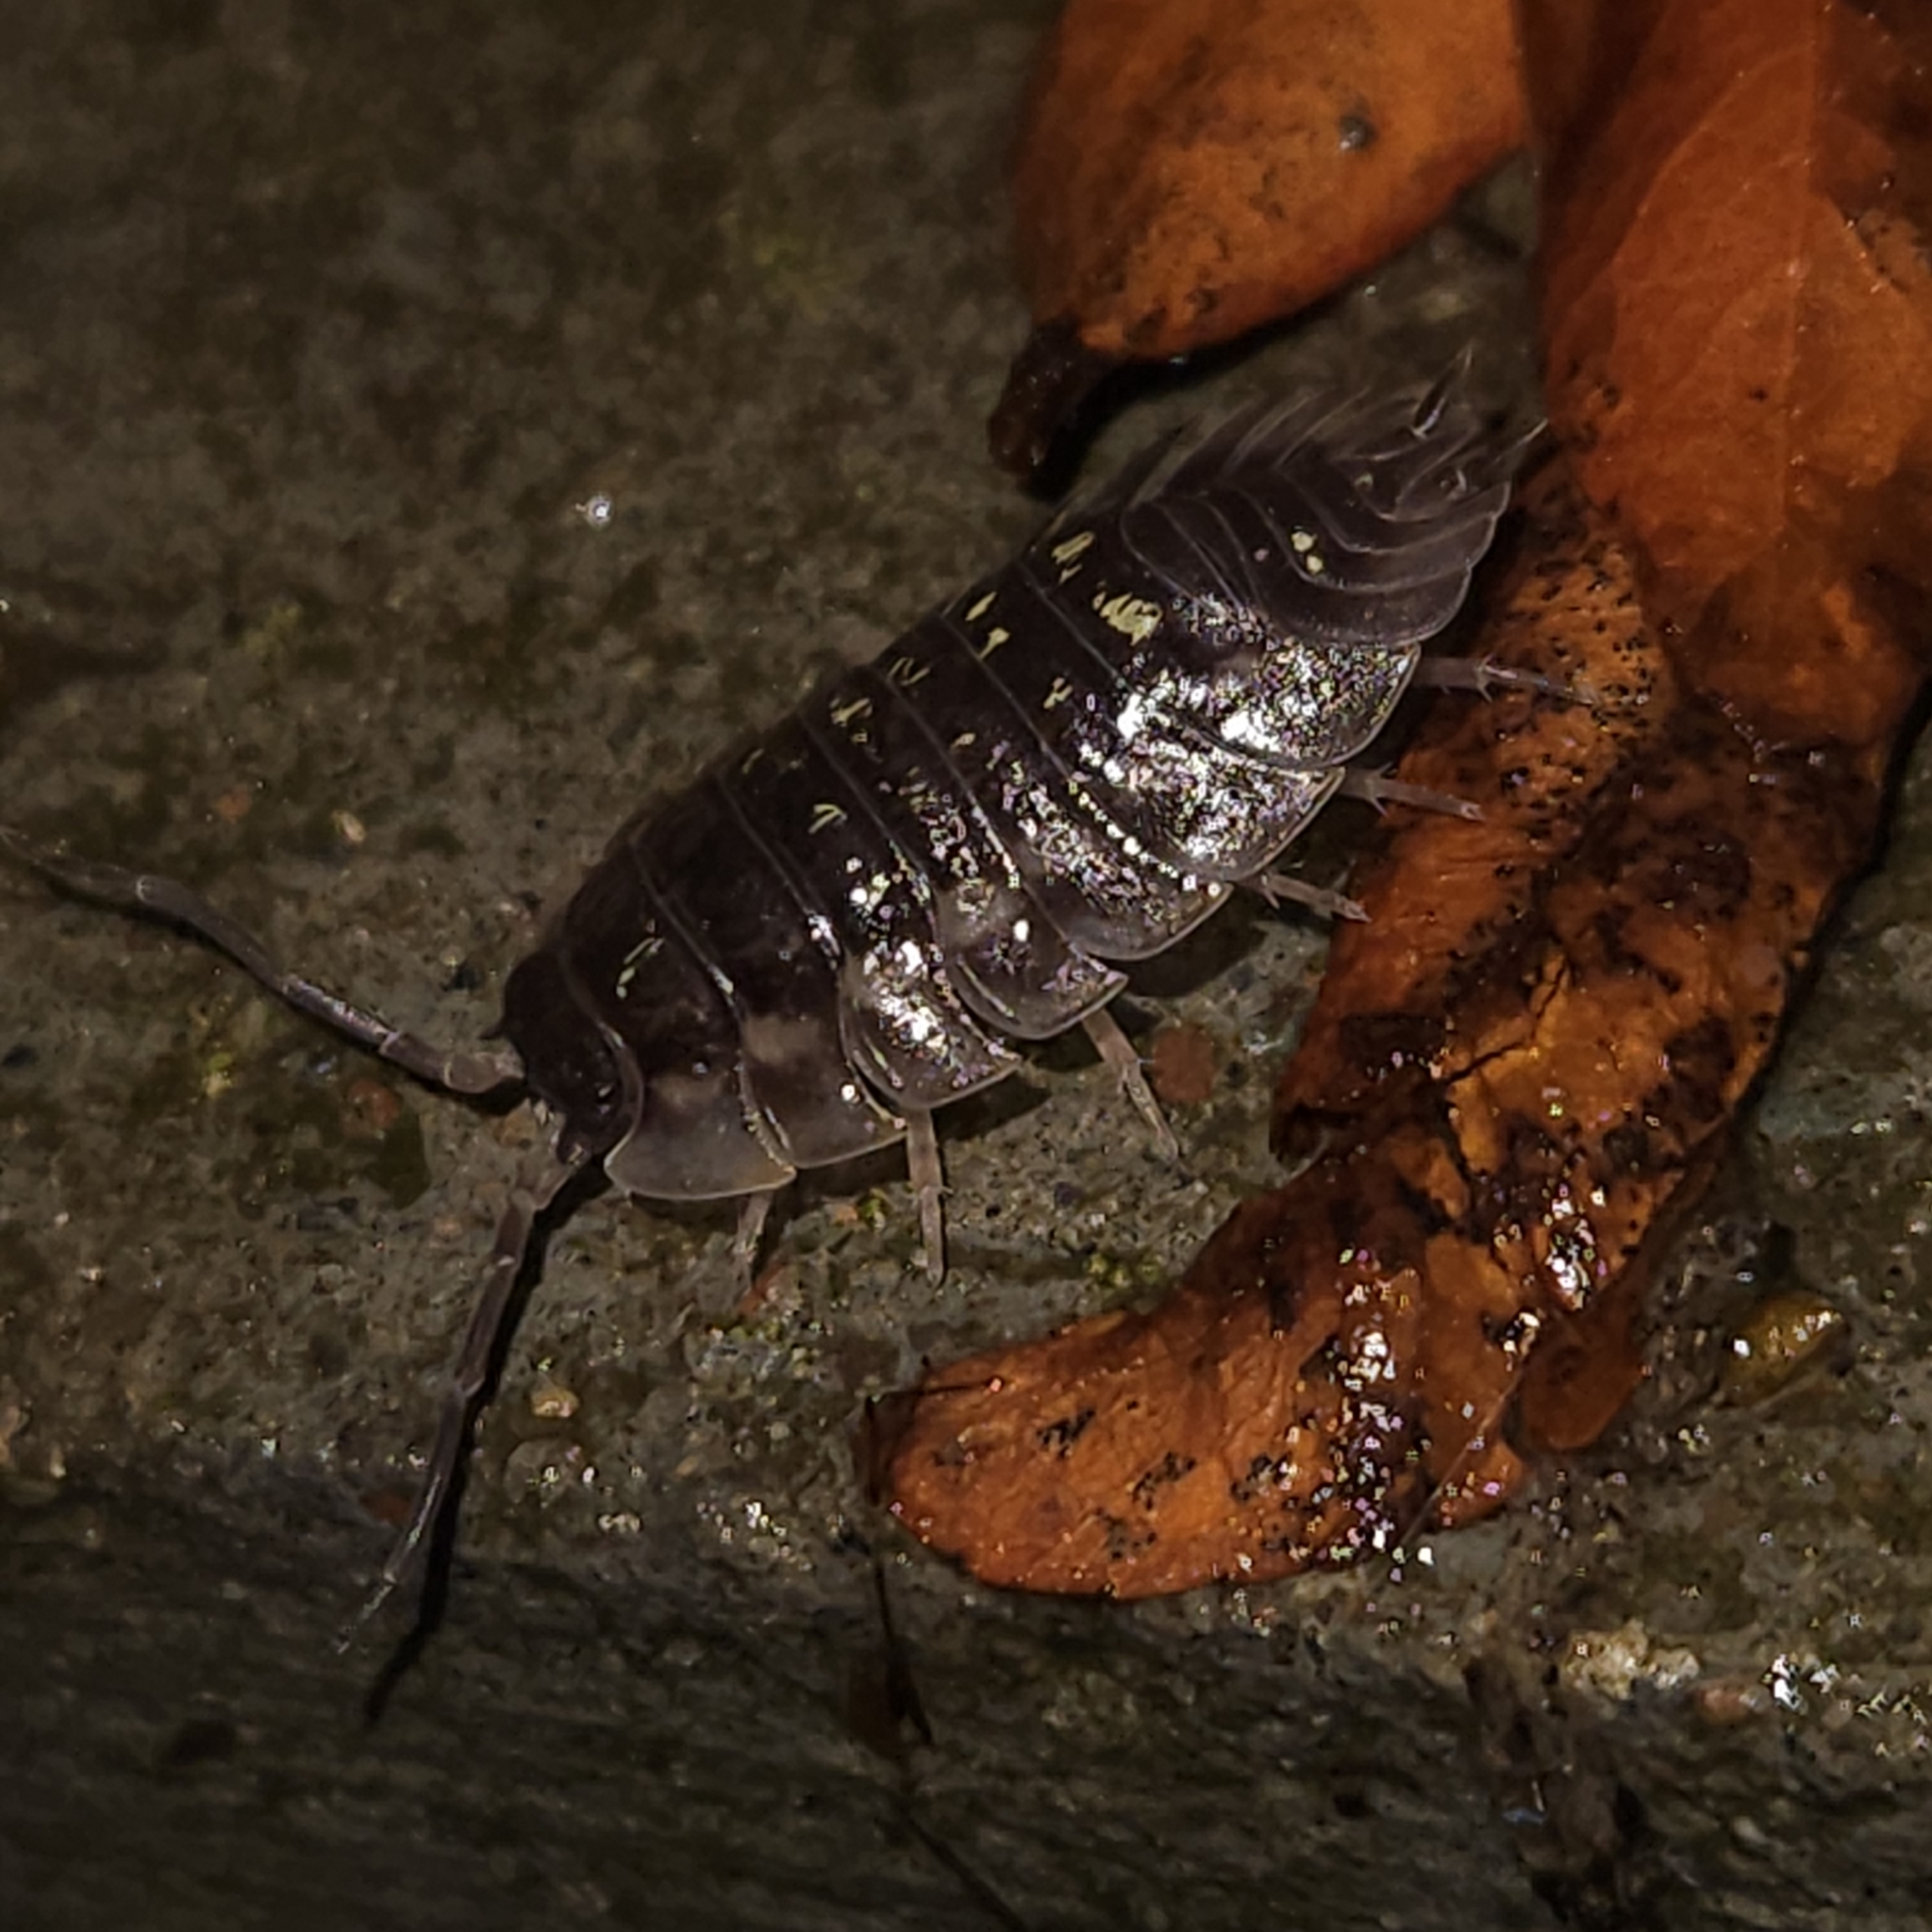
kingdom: Animalia
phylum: Arthropoda
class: Malacostraca
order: Isopoda
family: Oniscidae
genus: Oniscus
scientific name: Oniscus asellus
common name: Common shiny woodlouse
